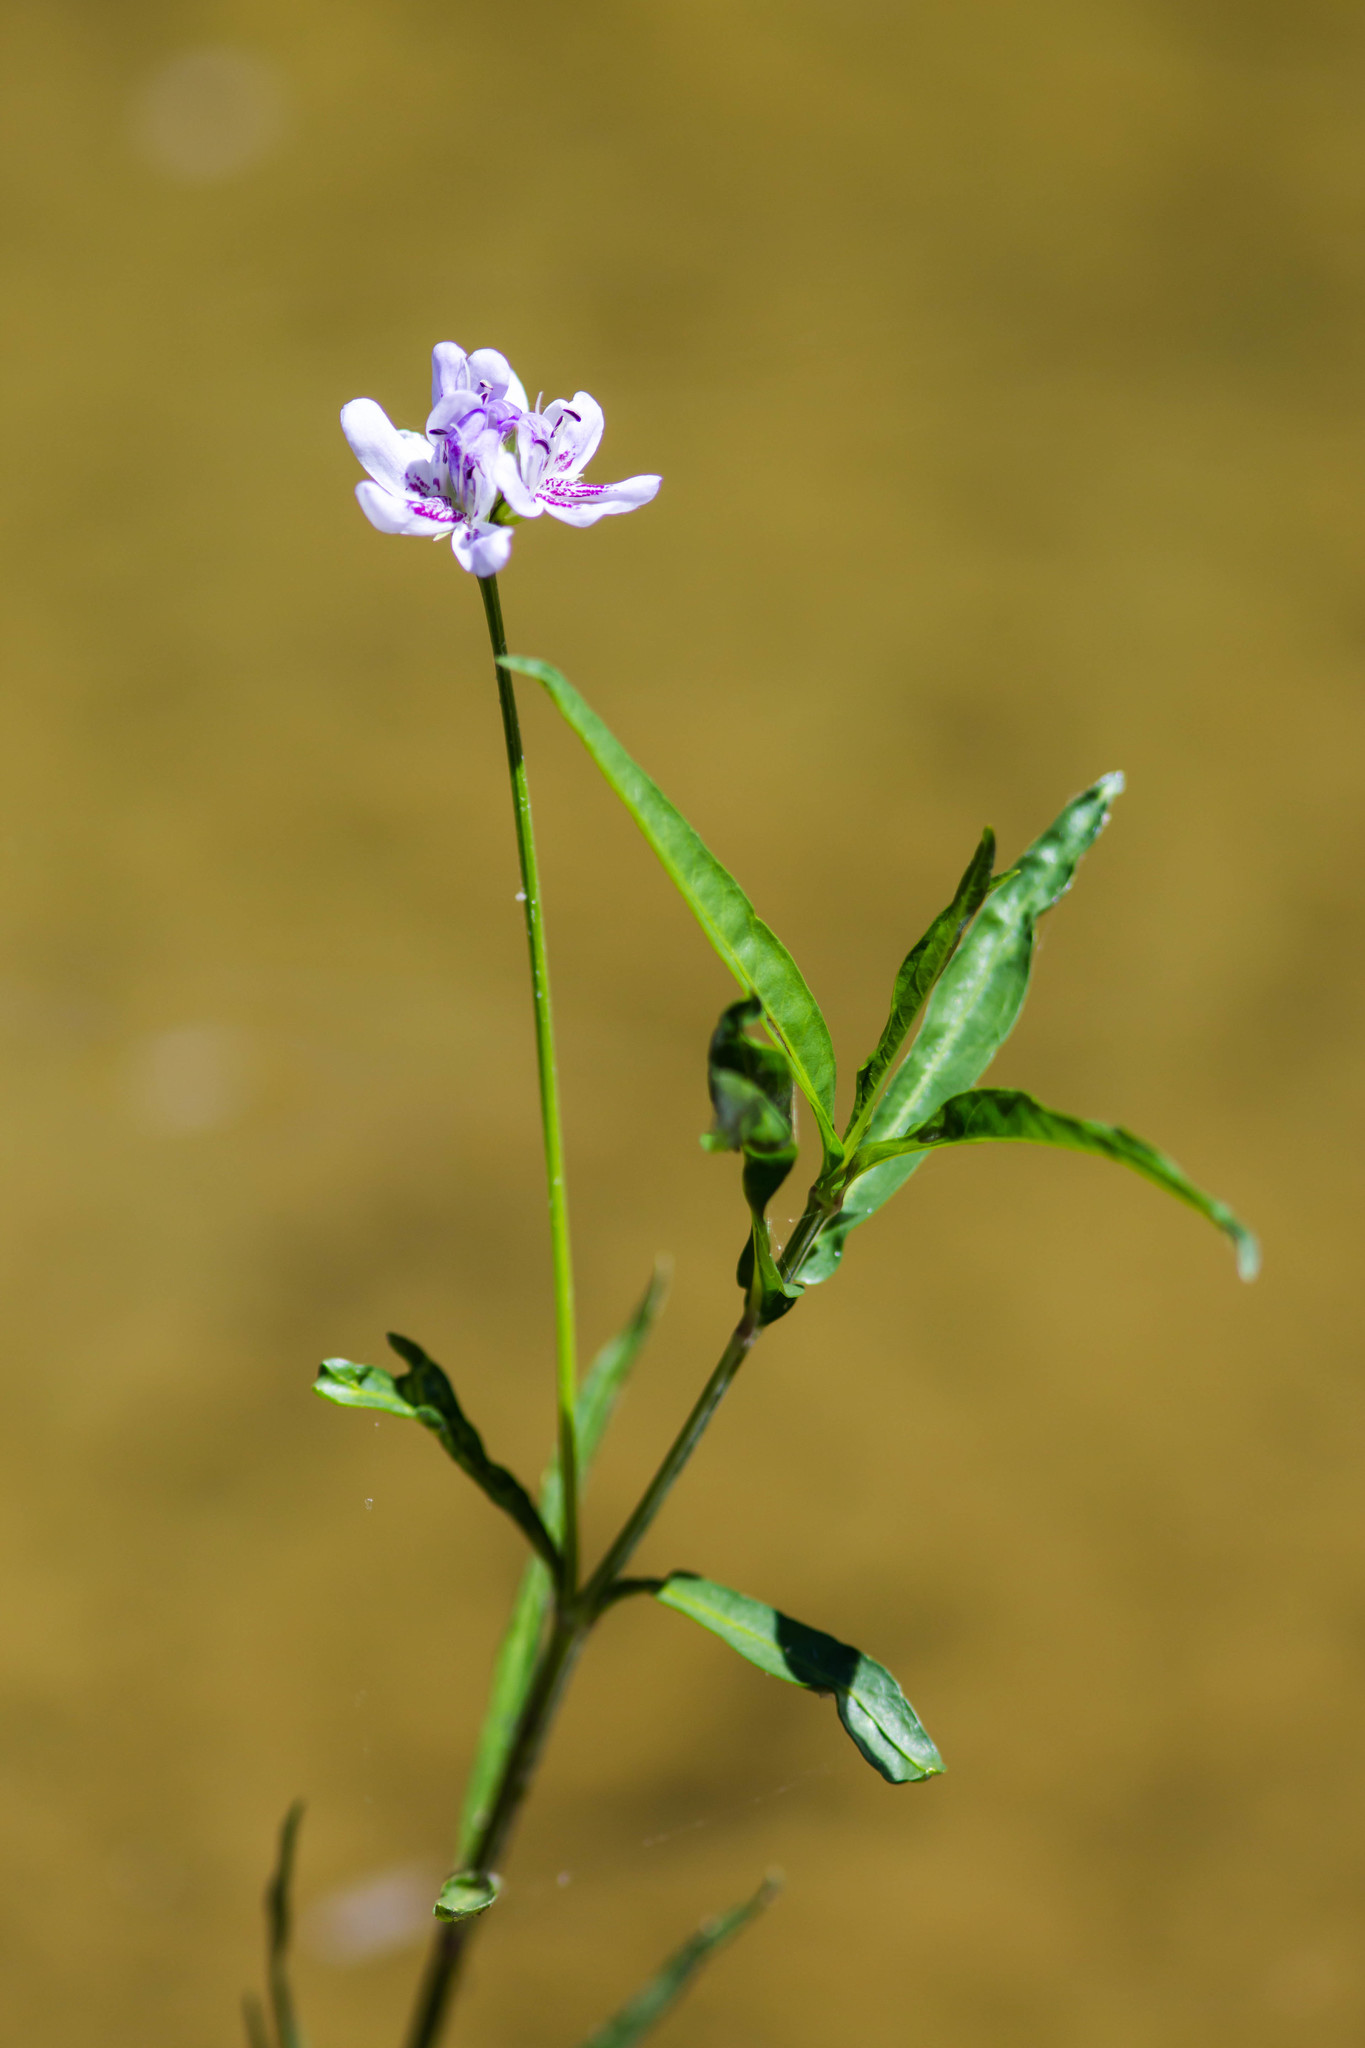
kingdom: Plantae
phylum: Tracheophyta
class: Magnoliopsida
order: Lamiales
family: Acanthaceae
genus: Dianthera
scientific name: Dianthera americana
